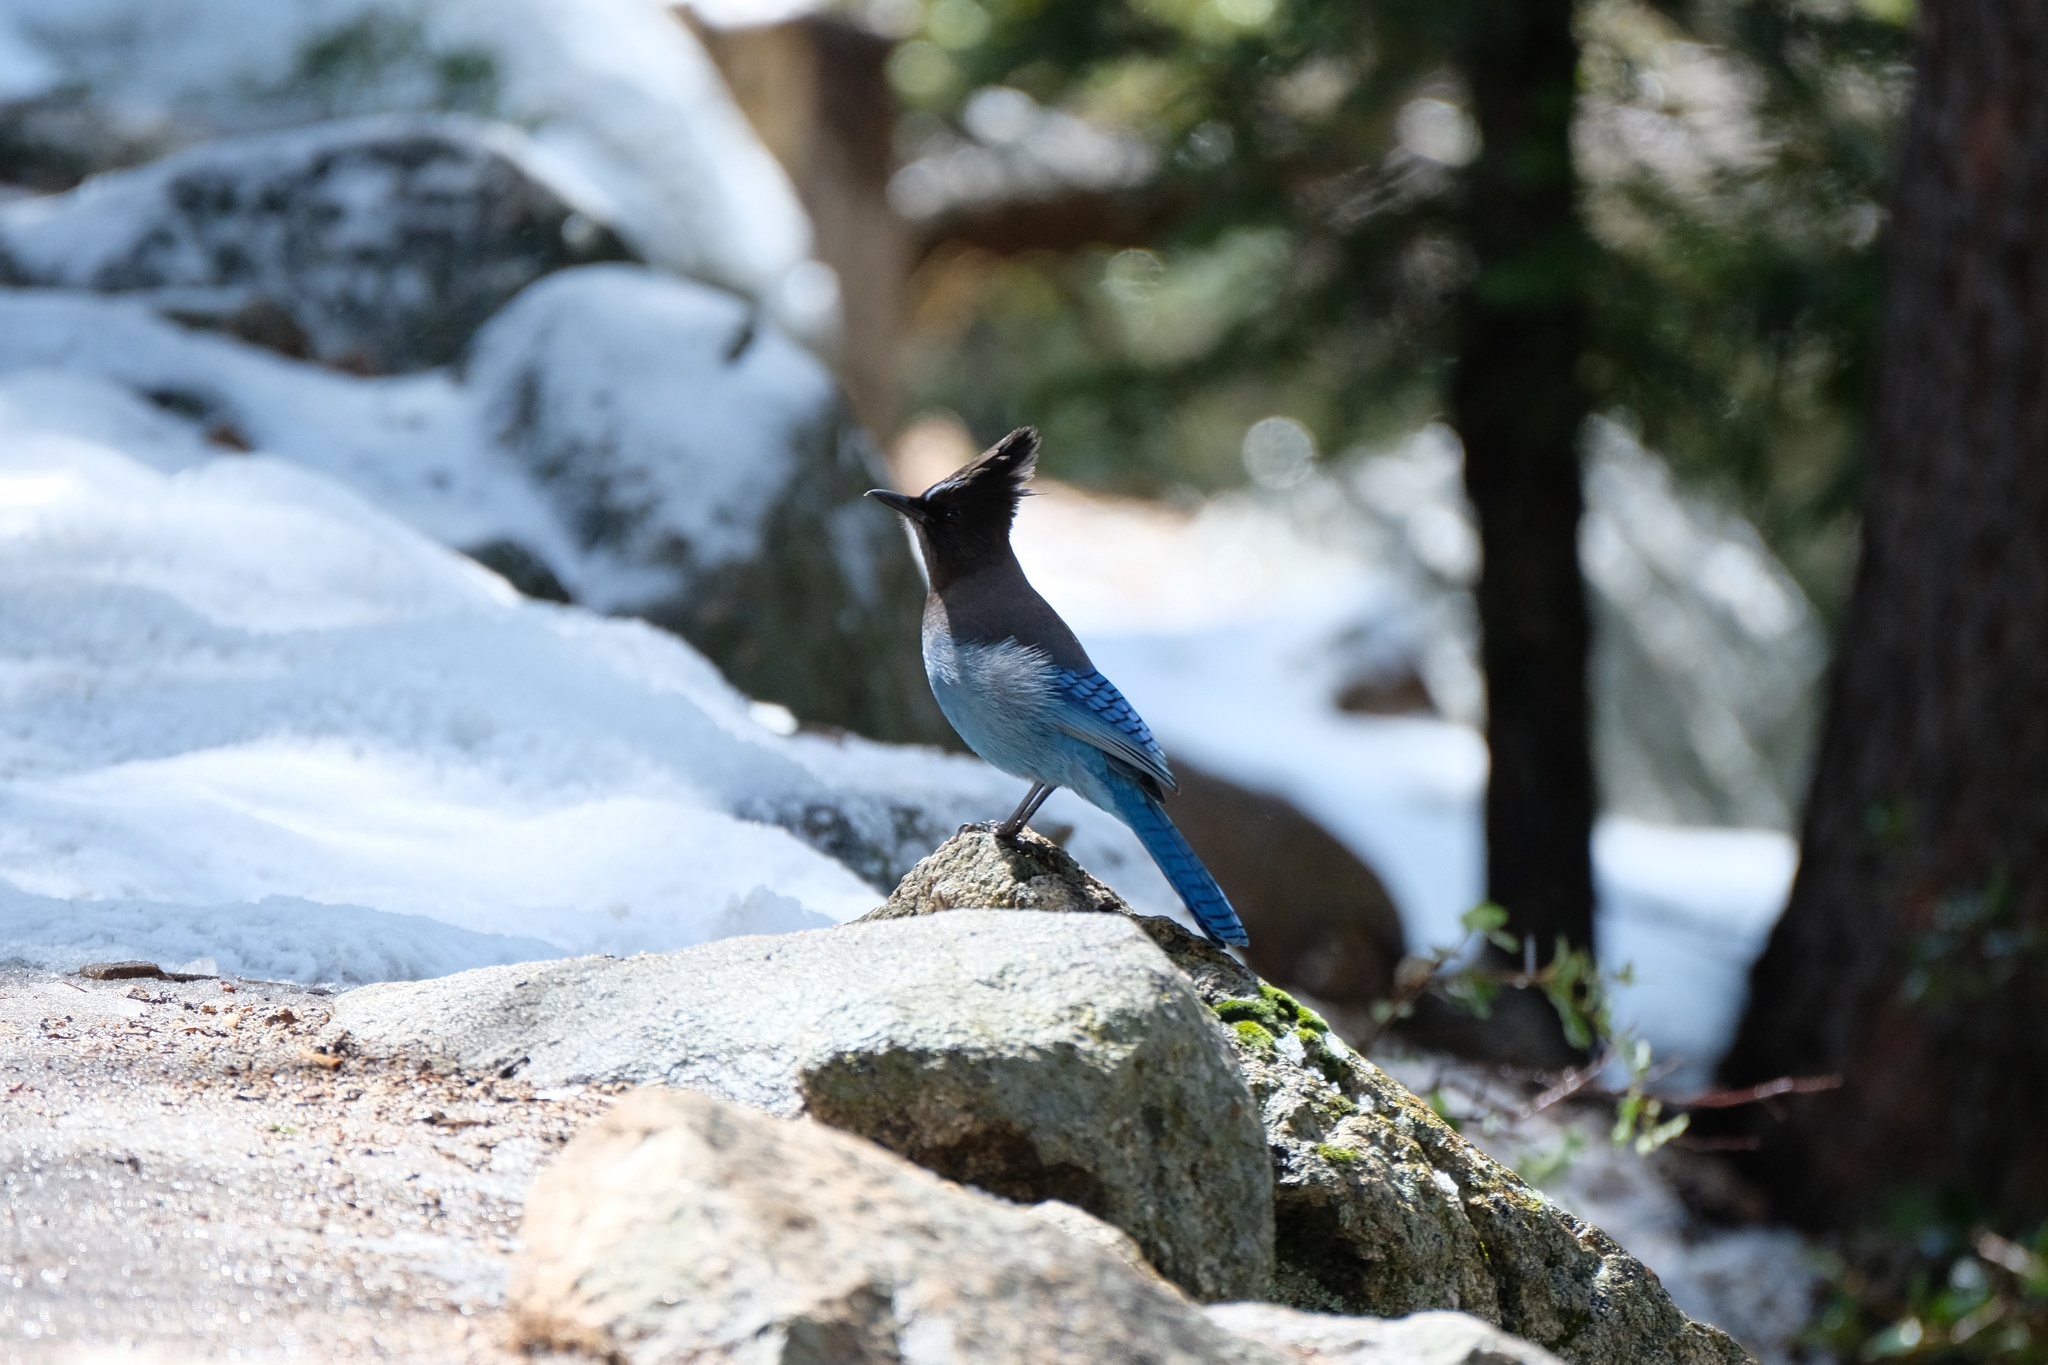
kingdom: Animalia
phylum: Chordata
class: Aves
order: Passeriformes
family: Corvidae
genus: Cyanocitta
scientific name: Cyanocitta stelleri
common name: Steller's jay
